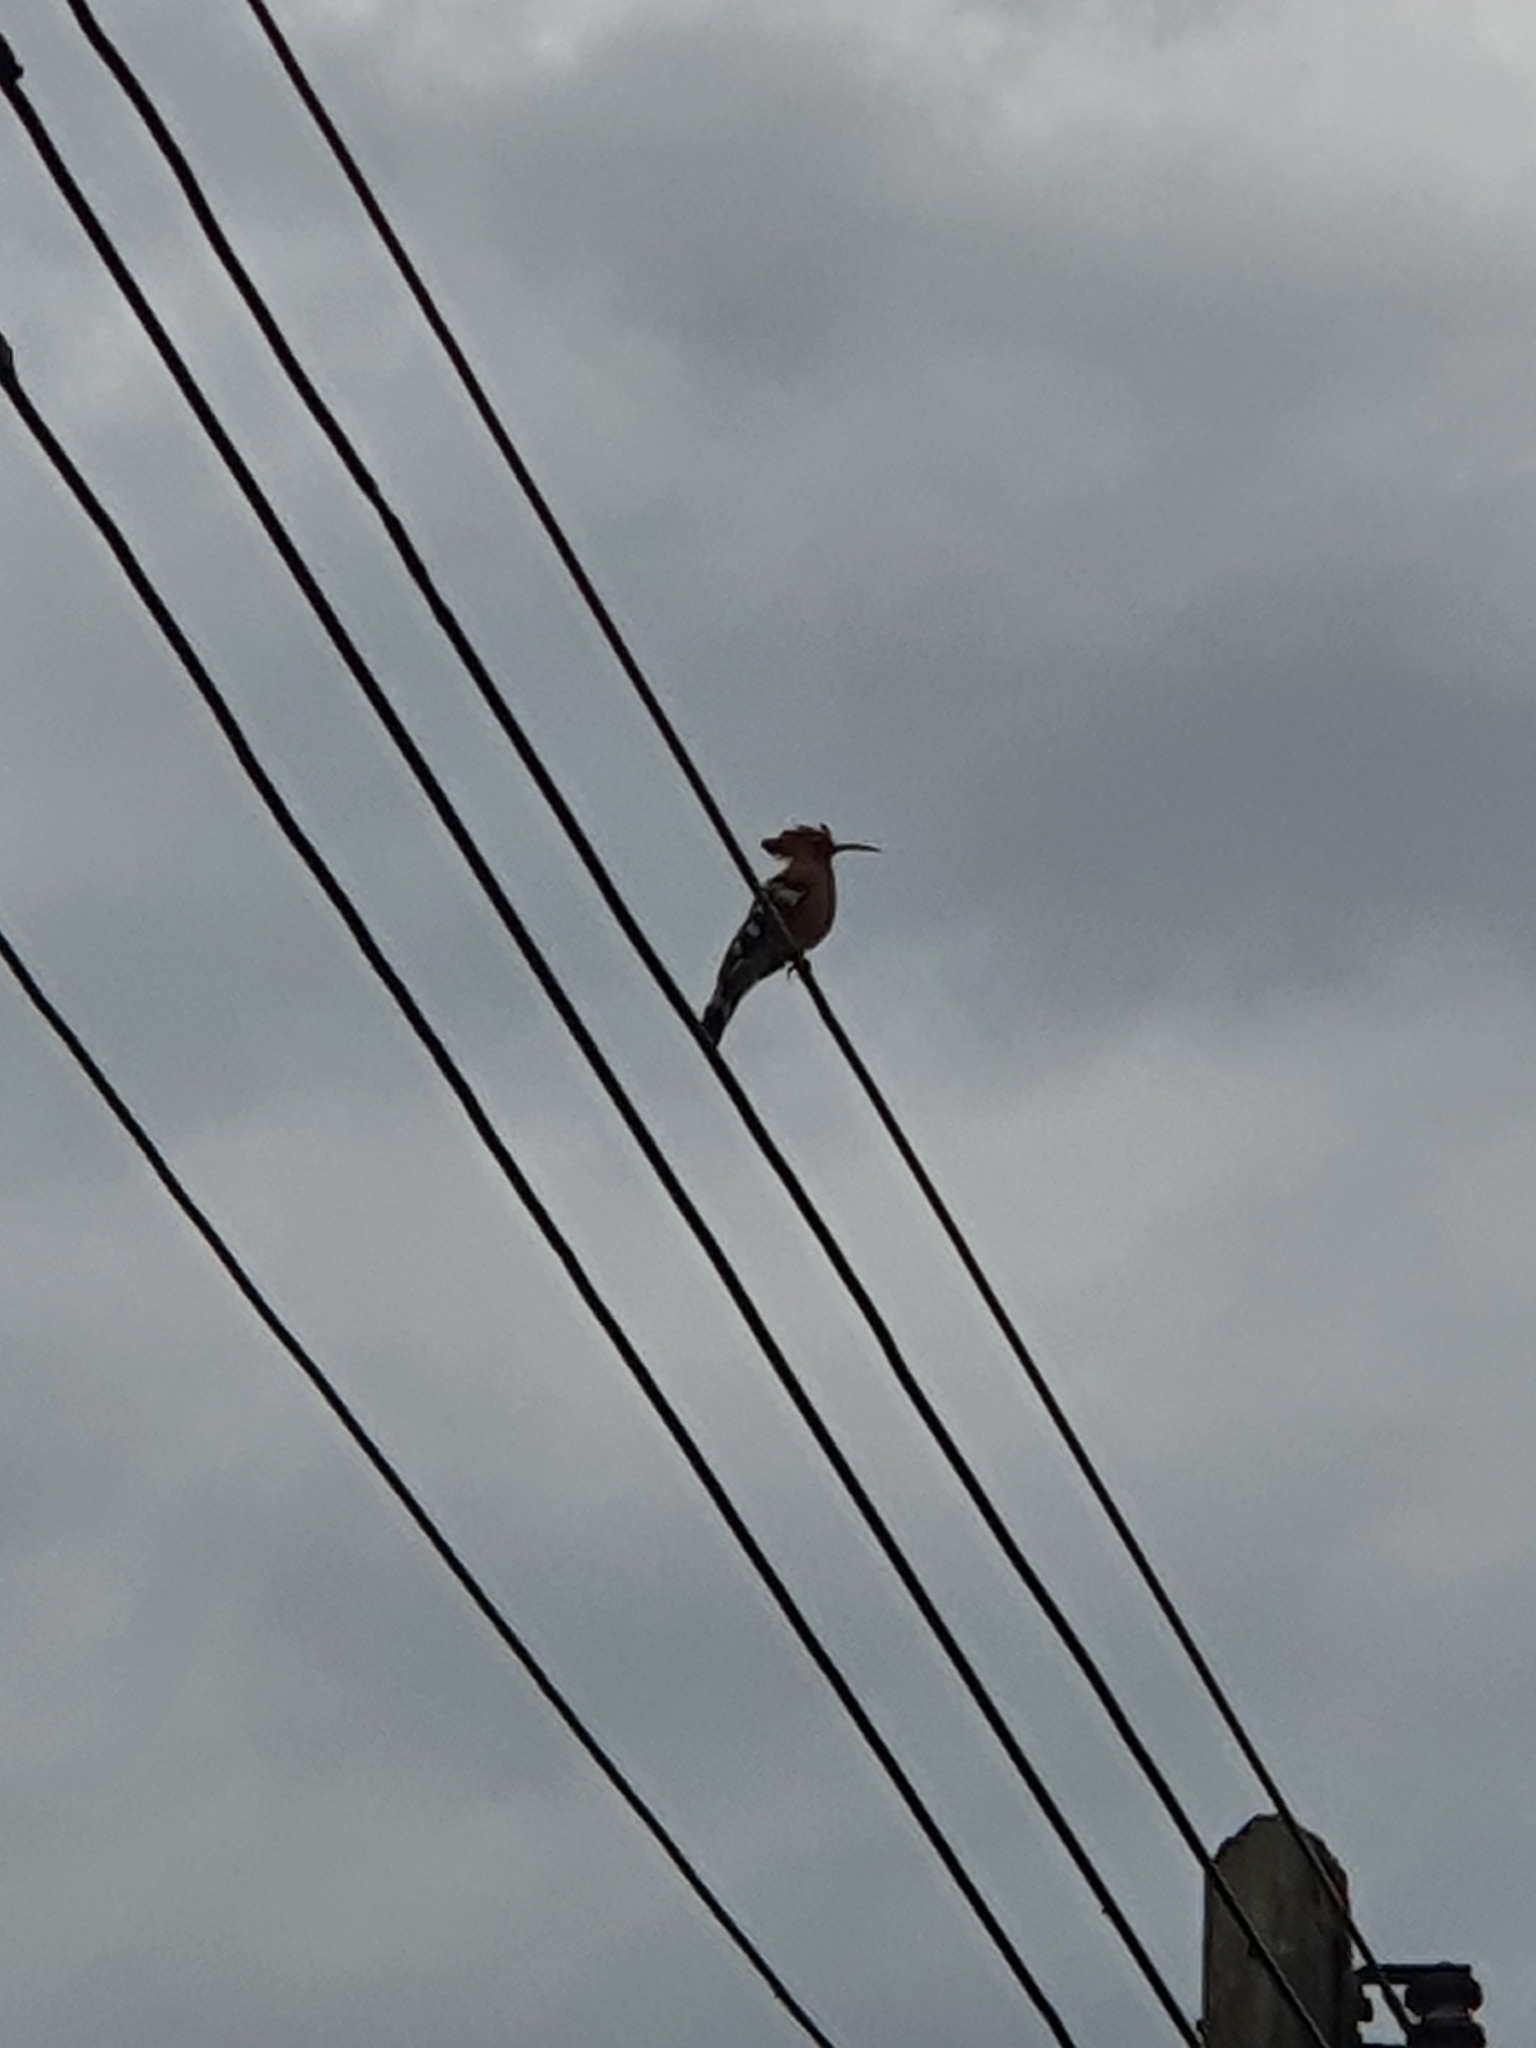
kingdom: Animalia
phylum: Chordata
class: Aves
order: Bucerotiformes
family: Upupidae
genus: Upupa
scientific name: Upupa epops
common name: Eurasian hoopoe
